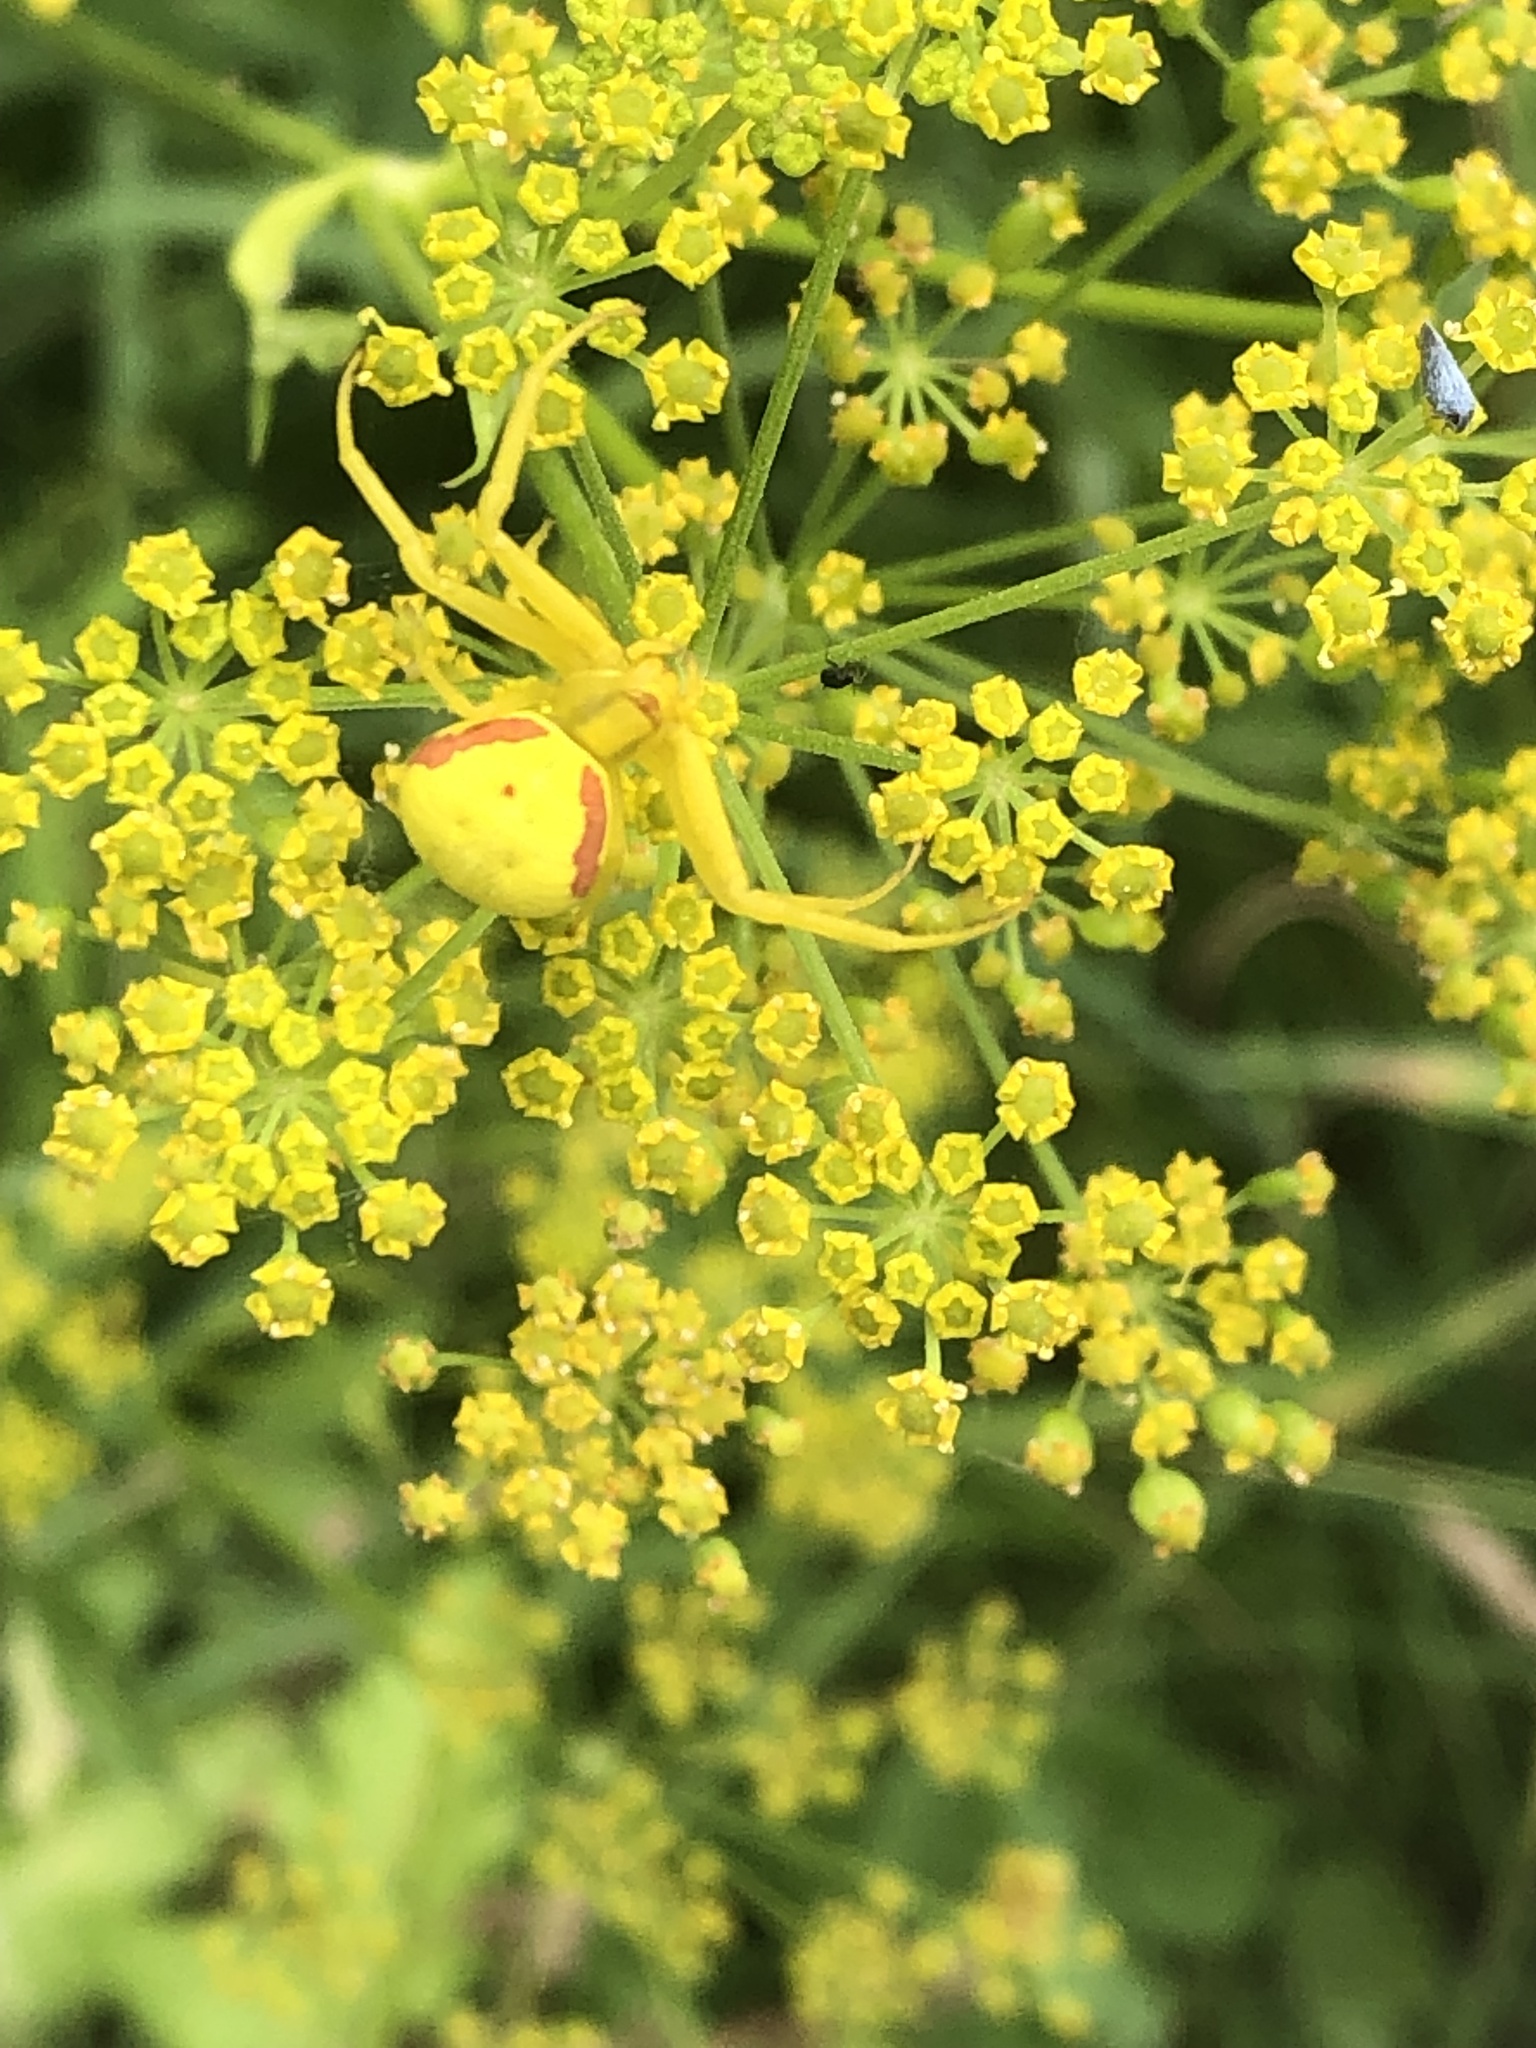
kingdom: Animalia
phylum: Arthropoda
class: Arachnida
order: Araneae
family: Thomisidae
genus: Misumena
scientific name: Misumena vatia
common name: Goldenrod crab spider
